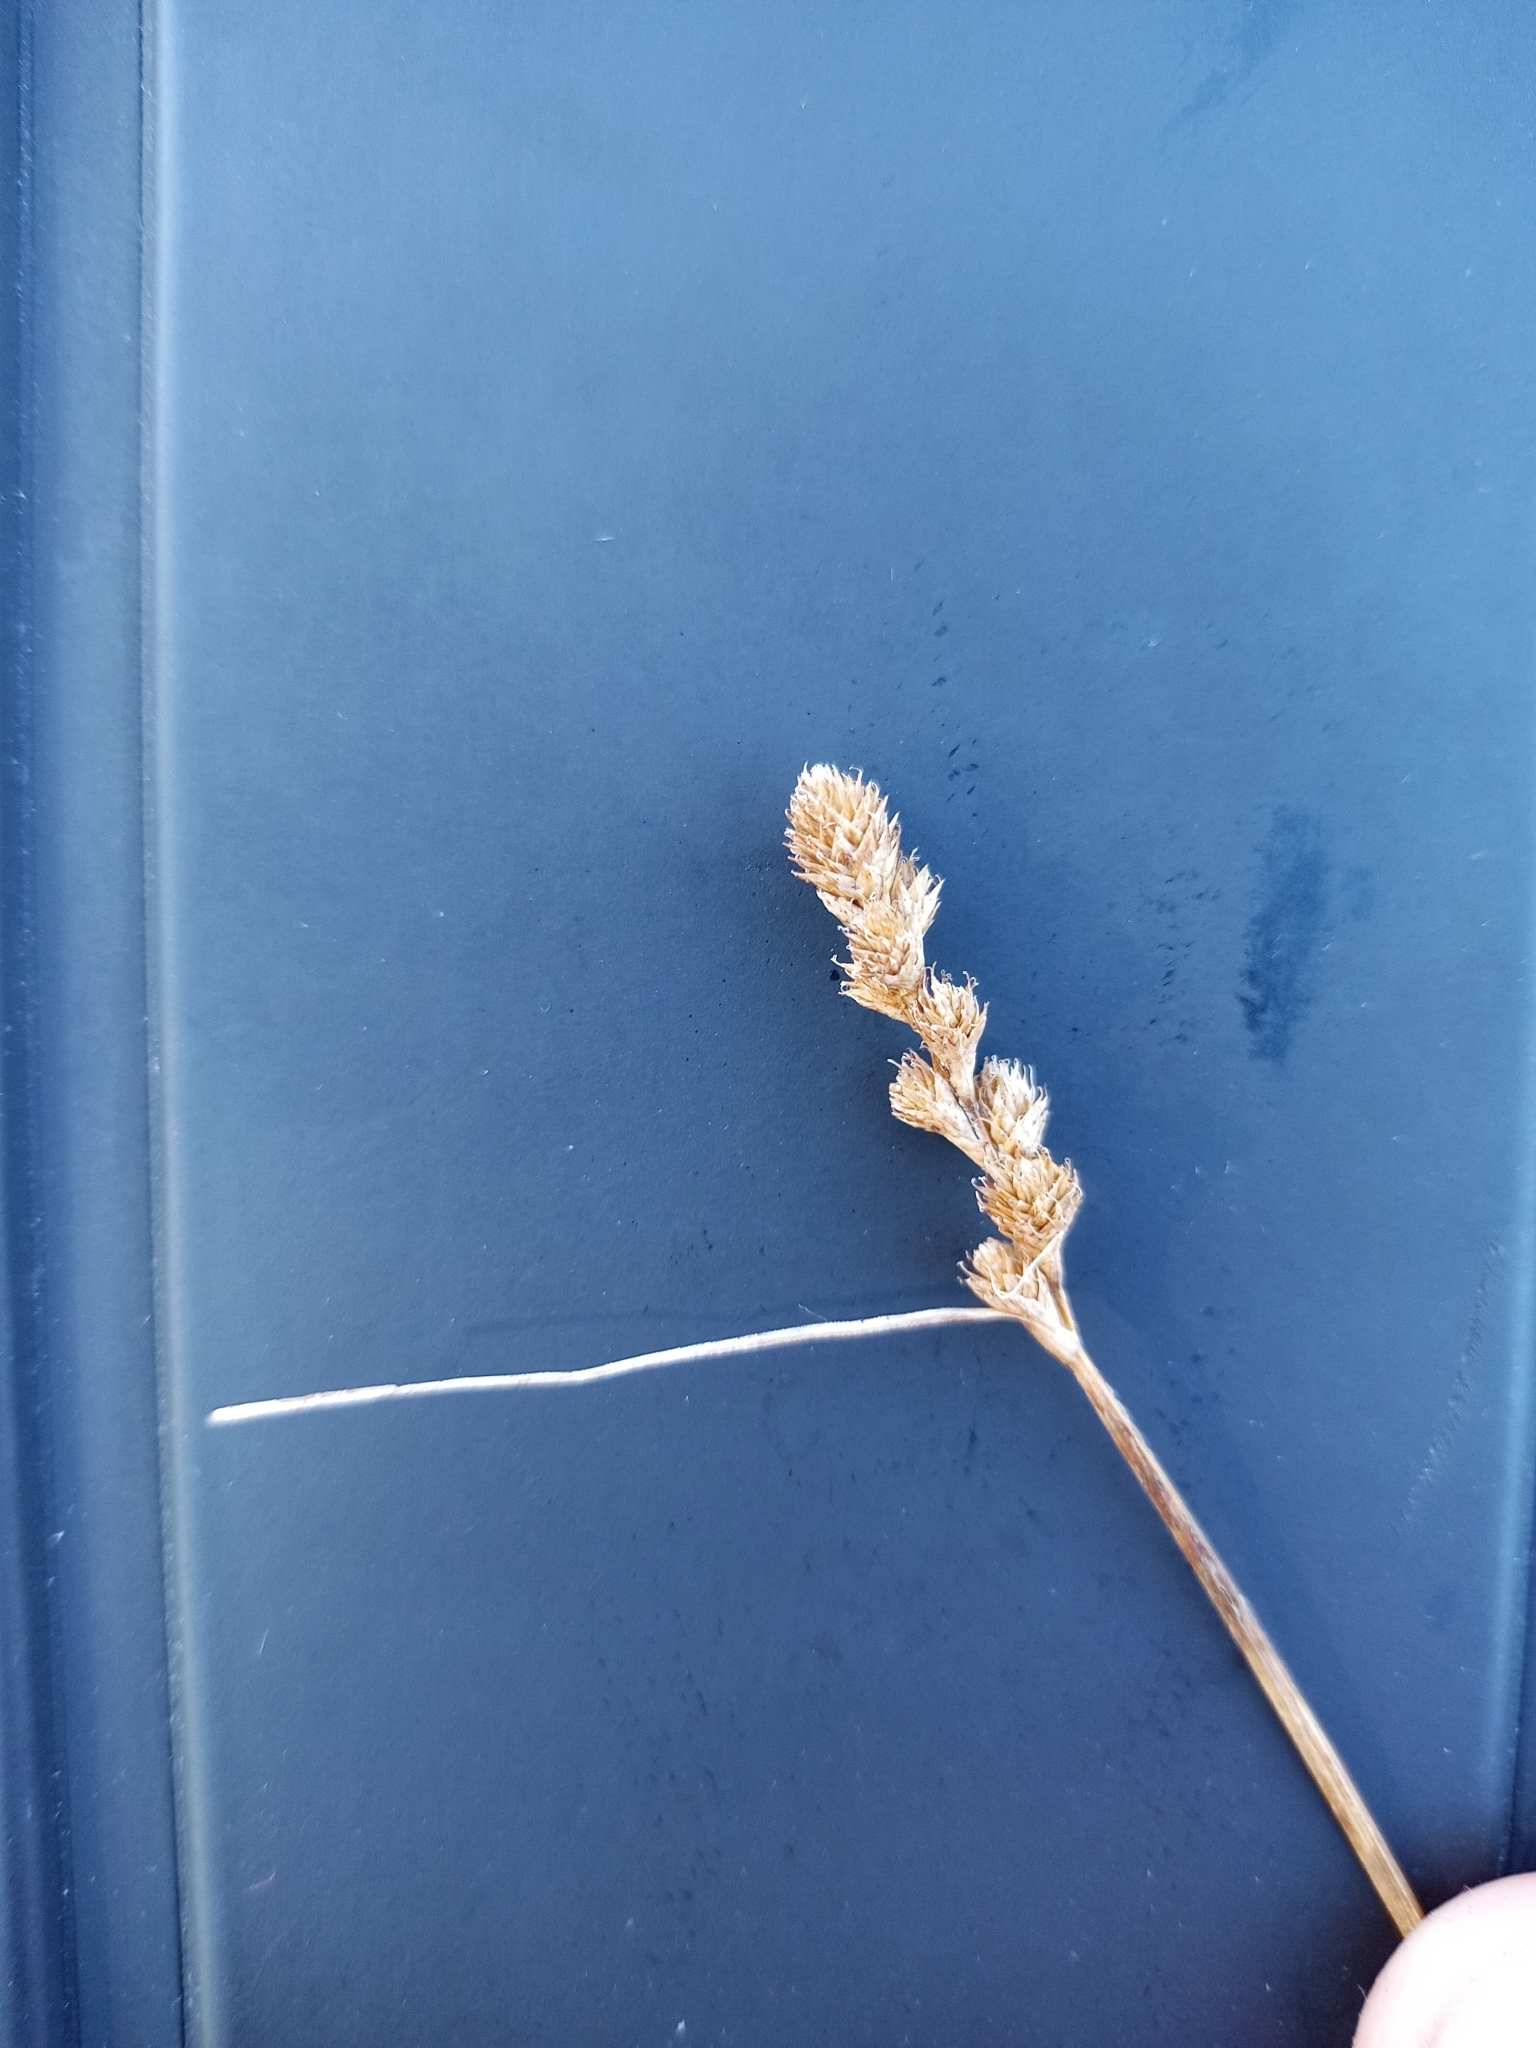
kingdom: Plantae
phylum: Tracheophyta
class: Liliopsida
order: Poales
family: Cyperaceae
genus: Carex
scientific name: Carex tribuloides
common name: Blunt broom sedge
